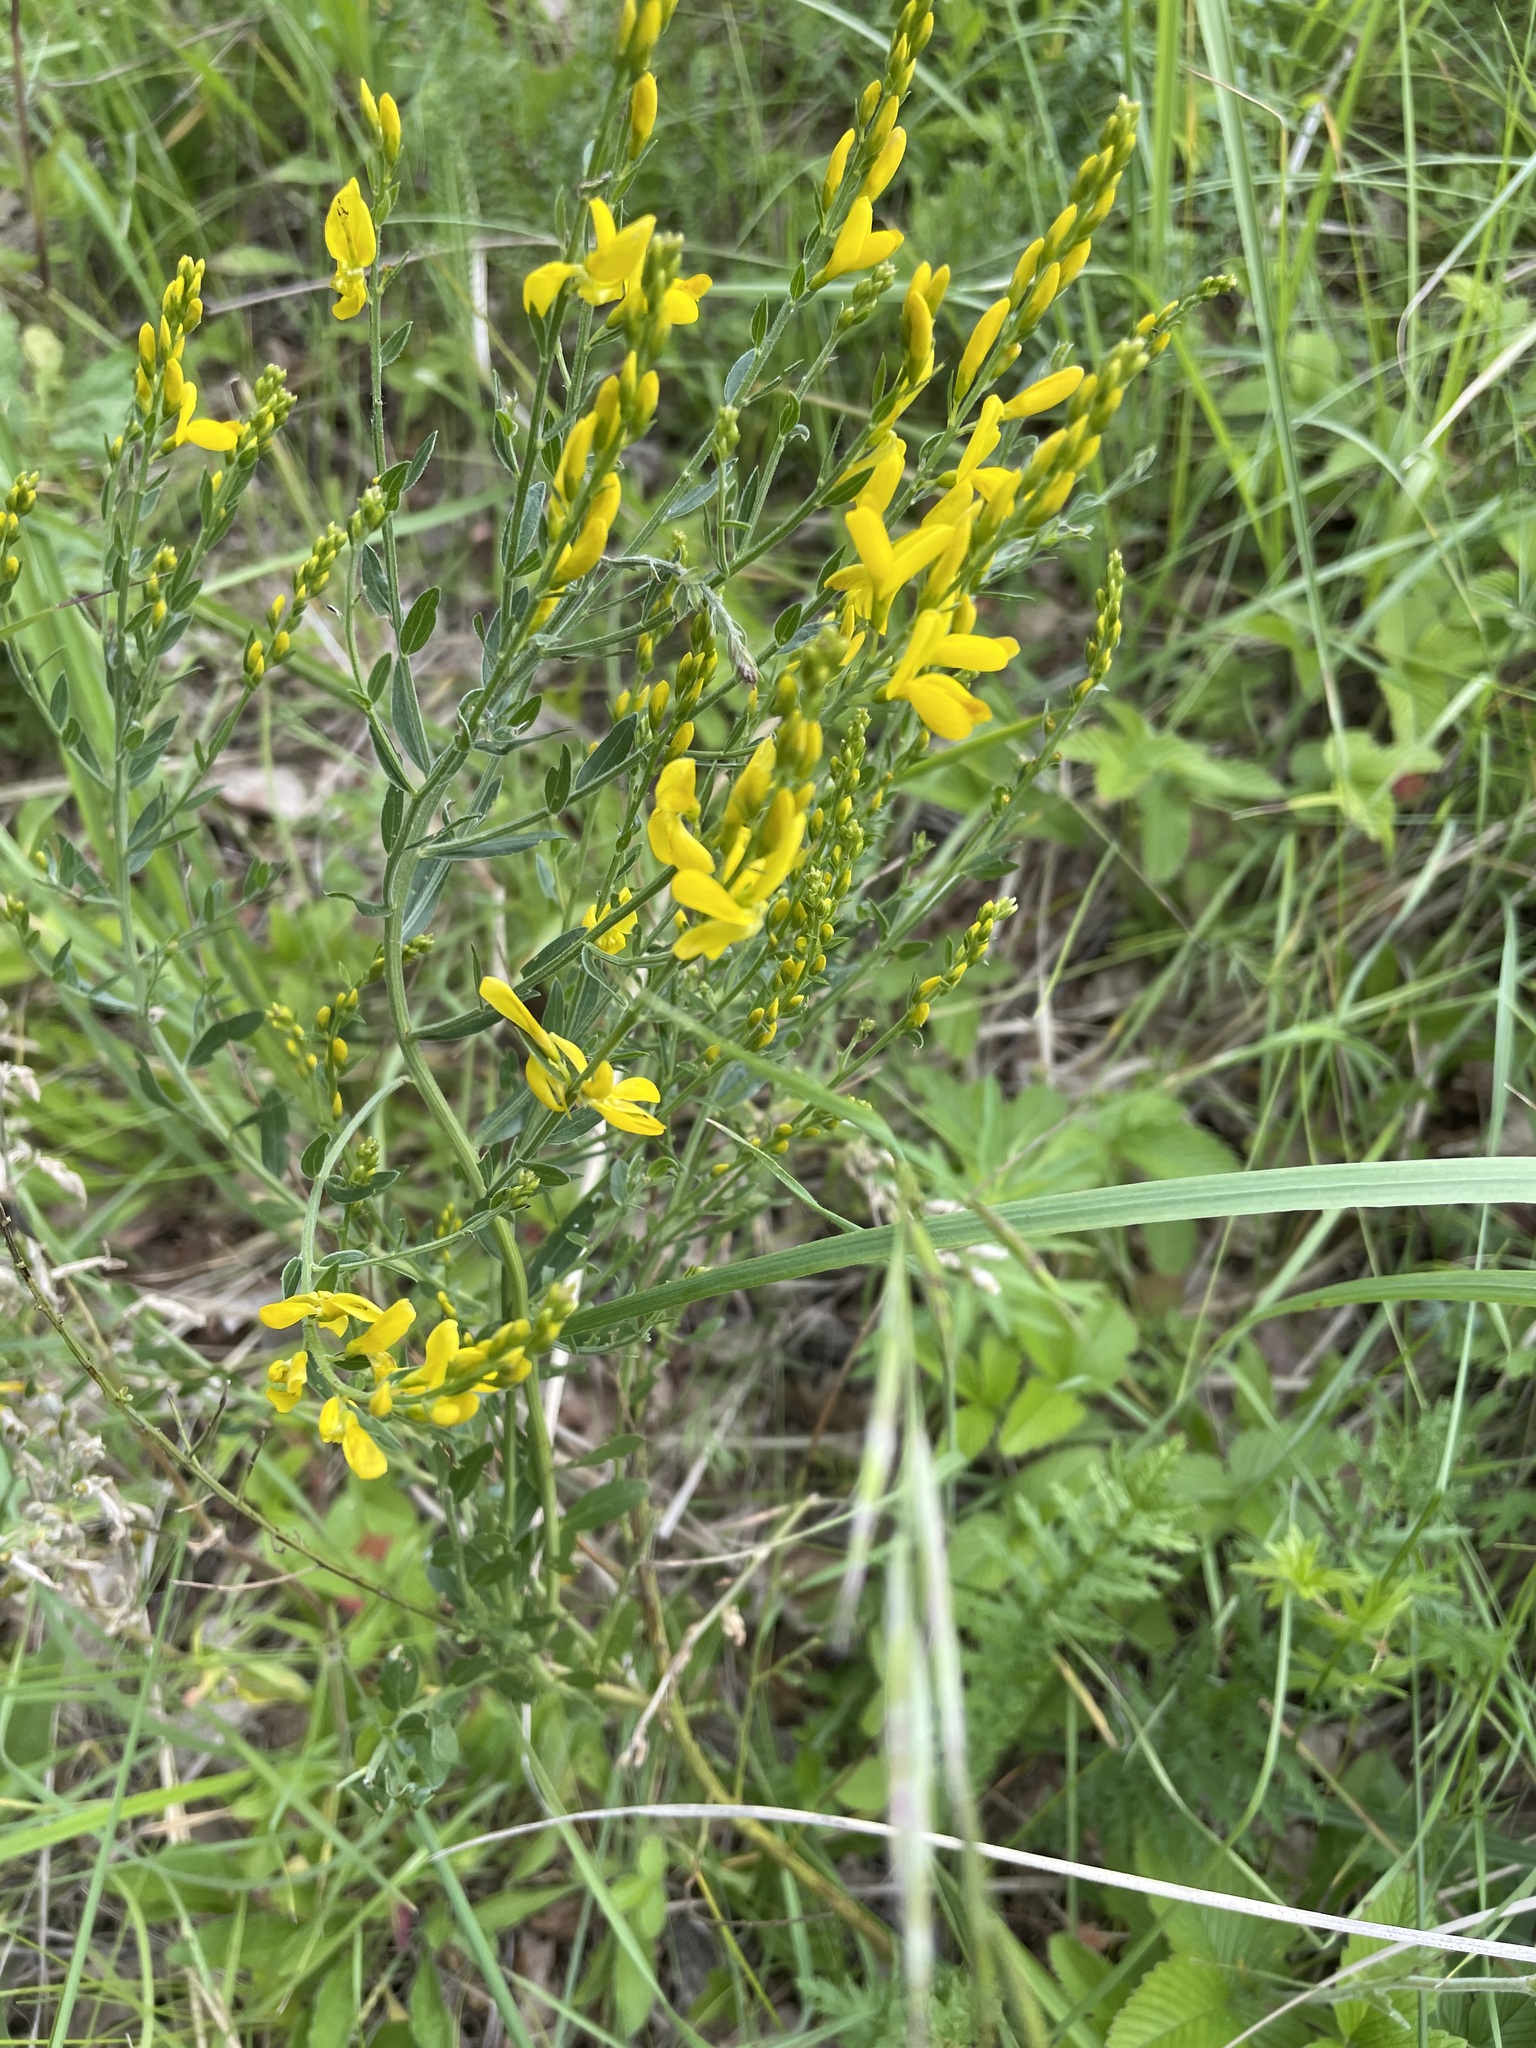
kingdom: Plantae
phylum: Tracheophyta
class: Magnoliopsida
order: Fabales
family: Fabaceae
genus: Genista
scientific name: Genista tinctoria
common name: Dyer's greenweed
